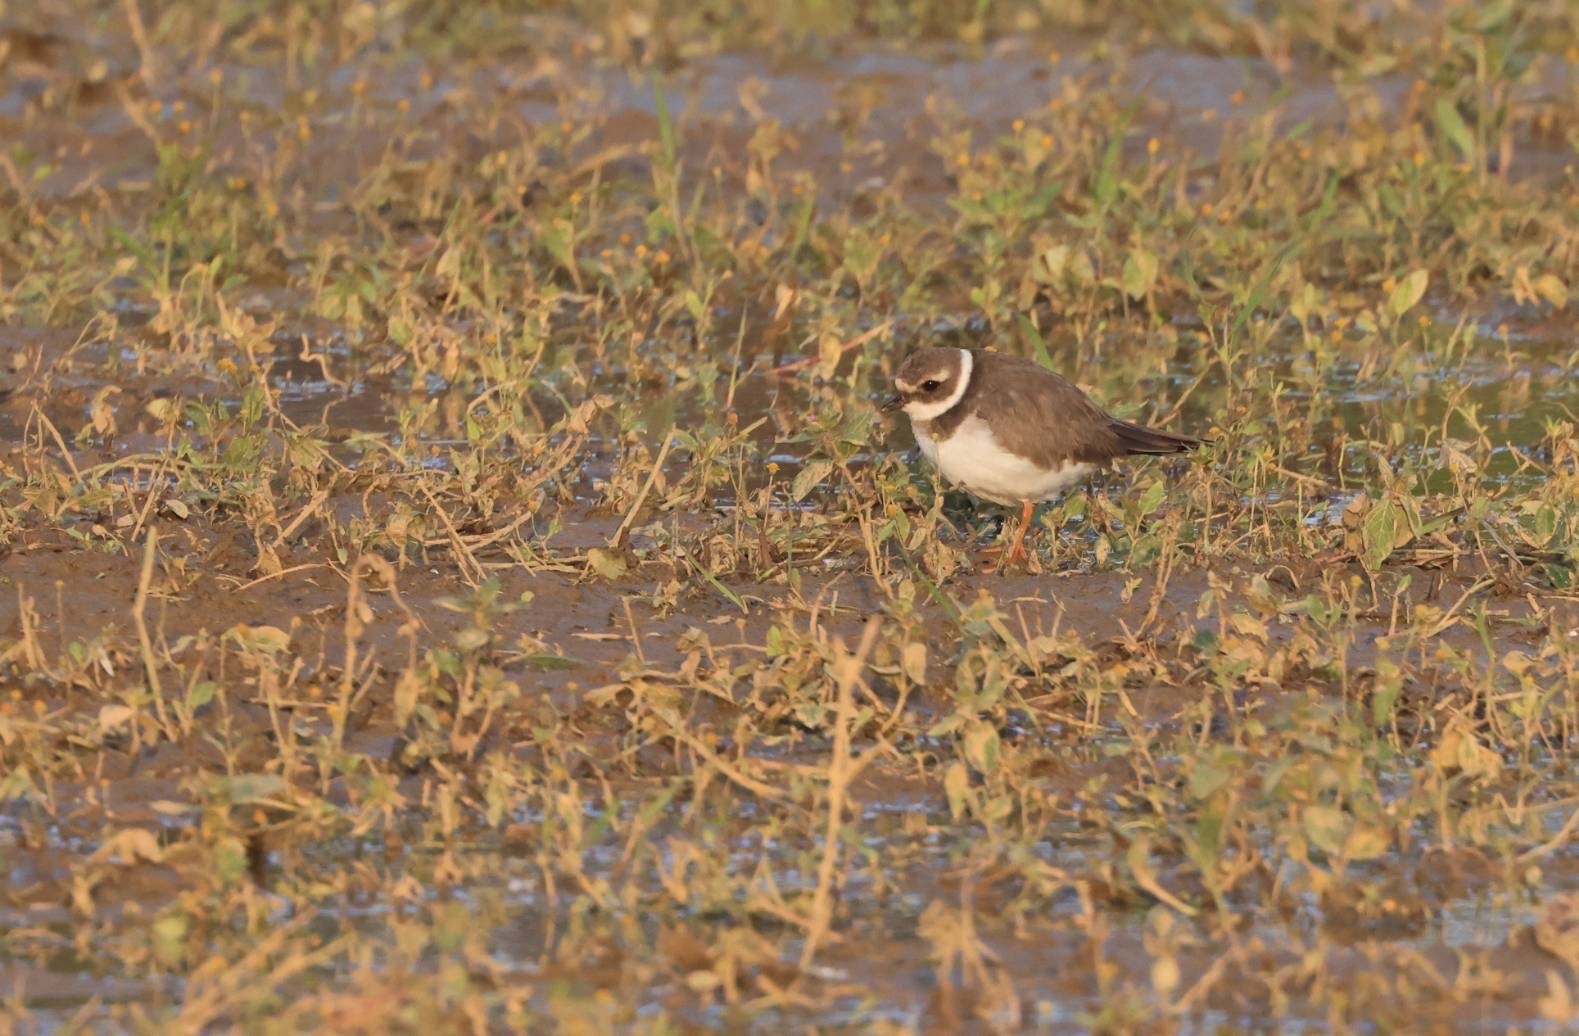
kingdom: Animalia
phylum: Chordata
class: Aves
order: Charadriiformes
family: Charadriidae
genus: Charadrius
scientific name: Charadrius hiaticula
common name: Common ringed plover
